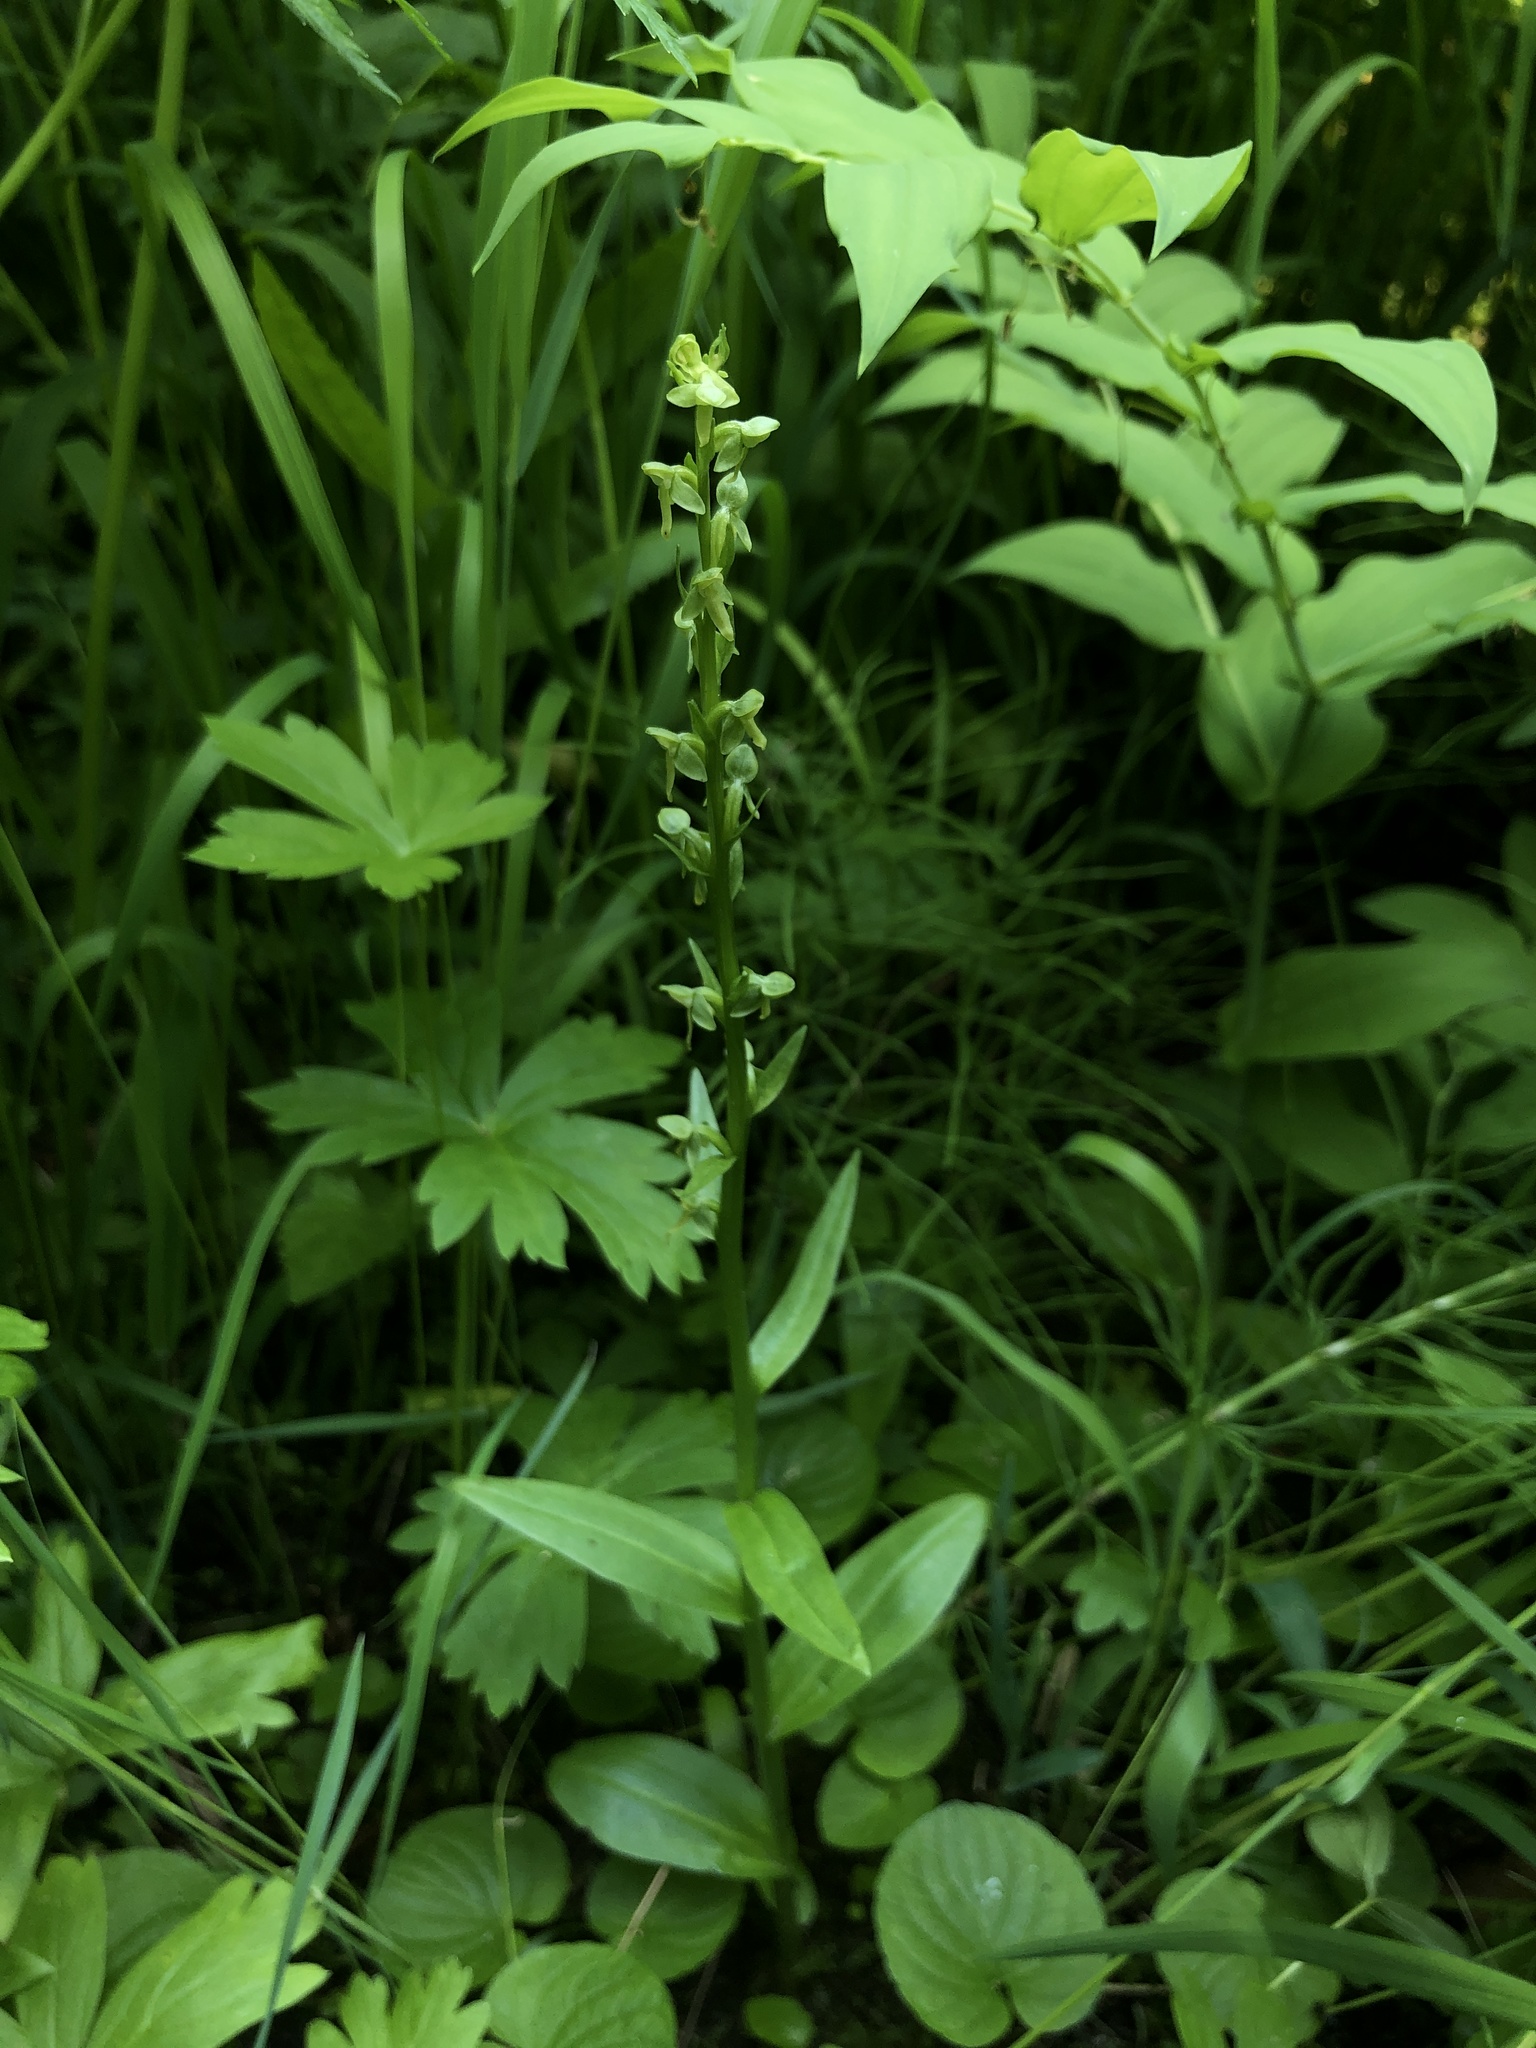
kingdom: Plantae
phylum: Tracheophyta
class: Liliopsida
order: Asparagales
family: Orchidaceae
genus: Platanthera
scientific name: Platanthera stricta
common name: Slender bog orchid
